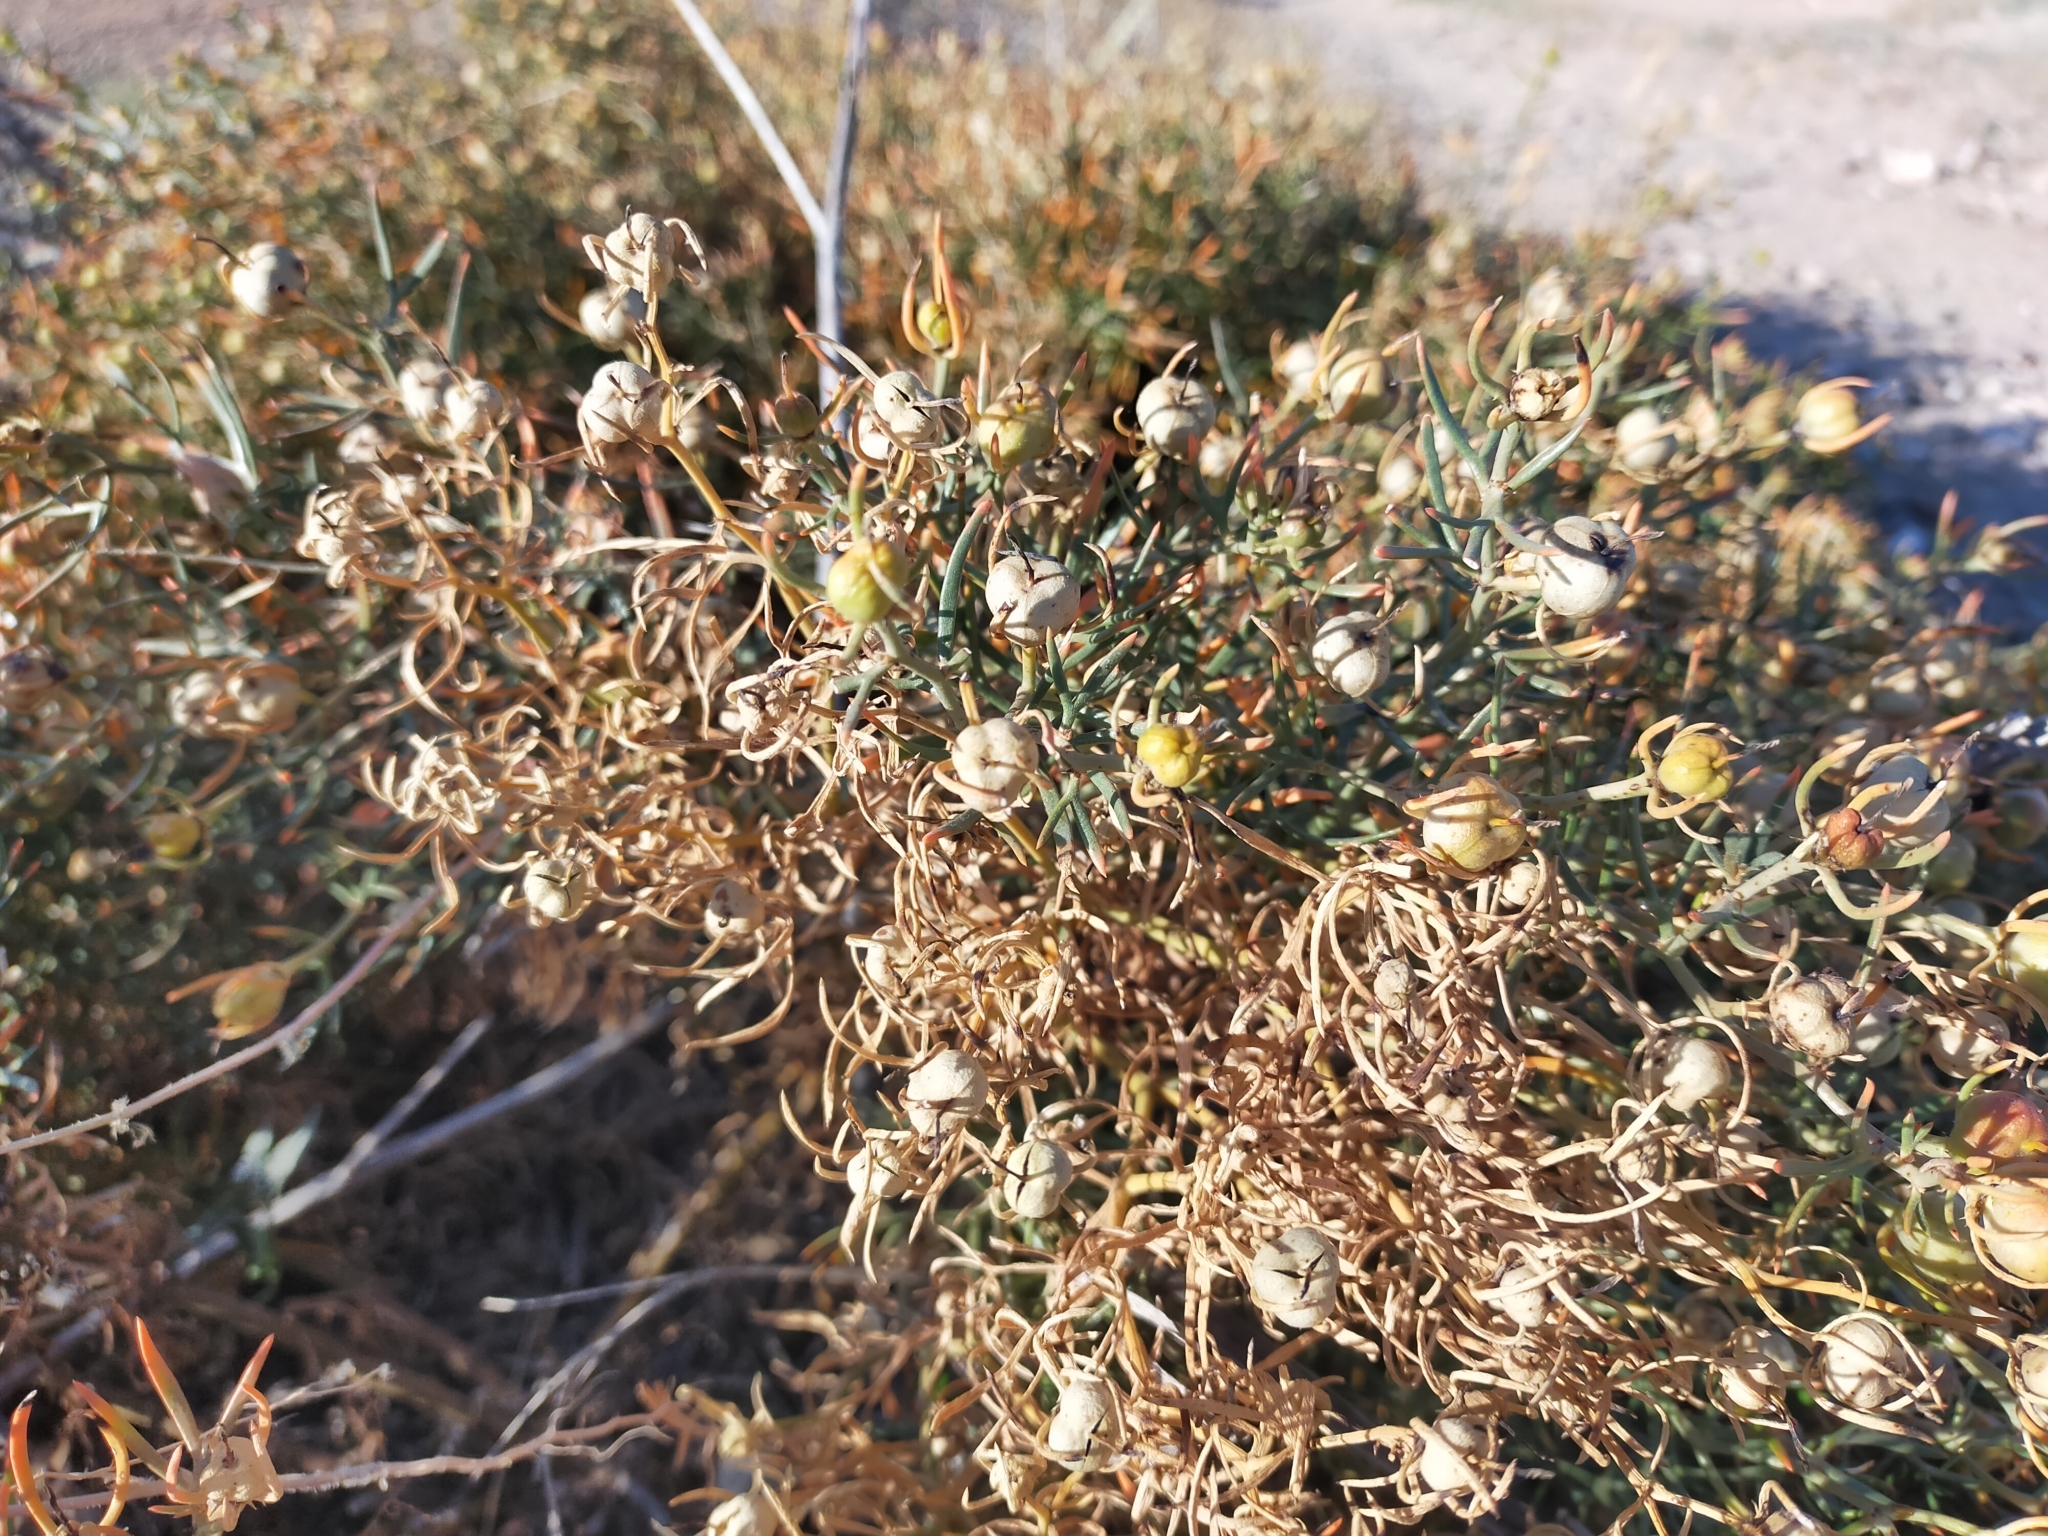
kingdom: Plantae
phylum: Tracheophyta
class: Magnoliopsida
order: Sapindales
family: Tetradiclidaceae
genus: Peganum
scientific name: Peganum harmala
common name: Harmal peganum
